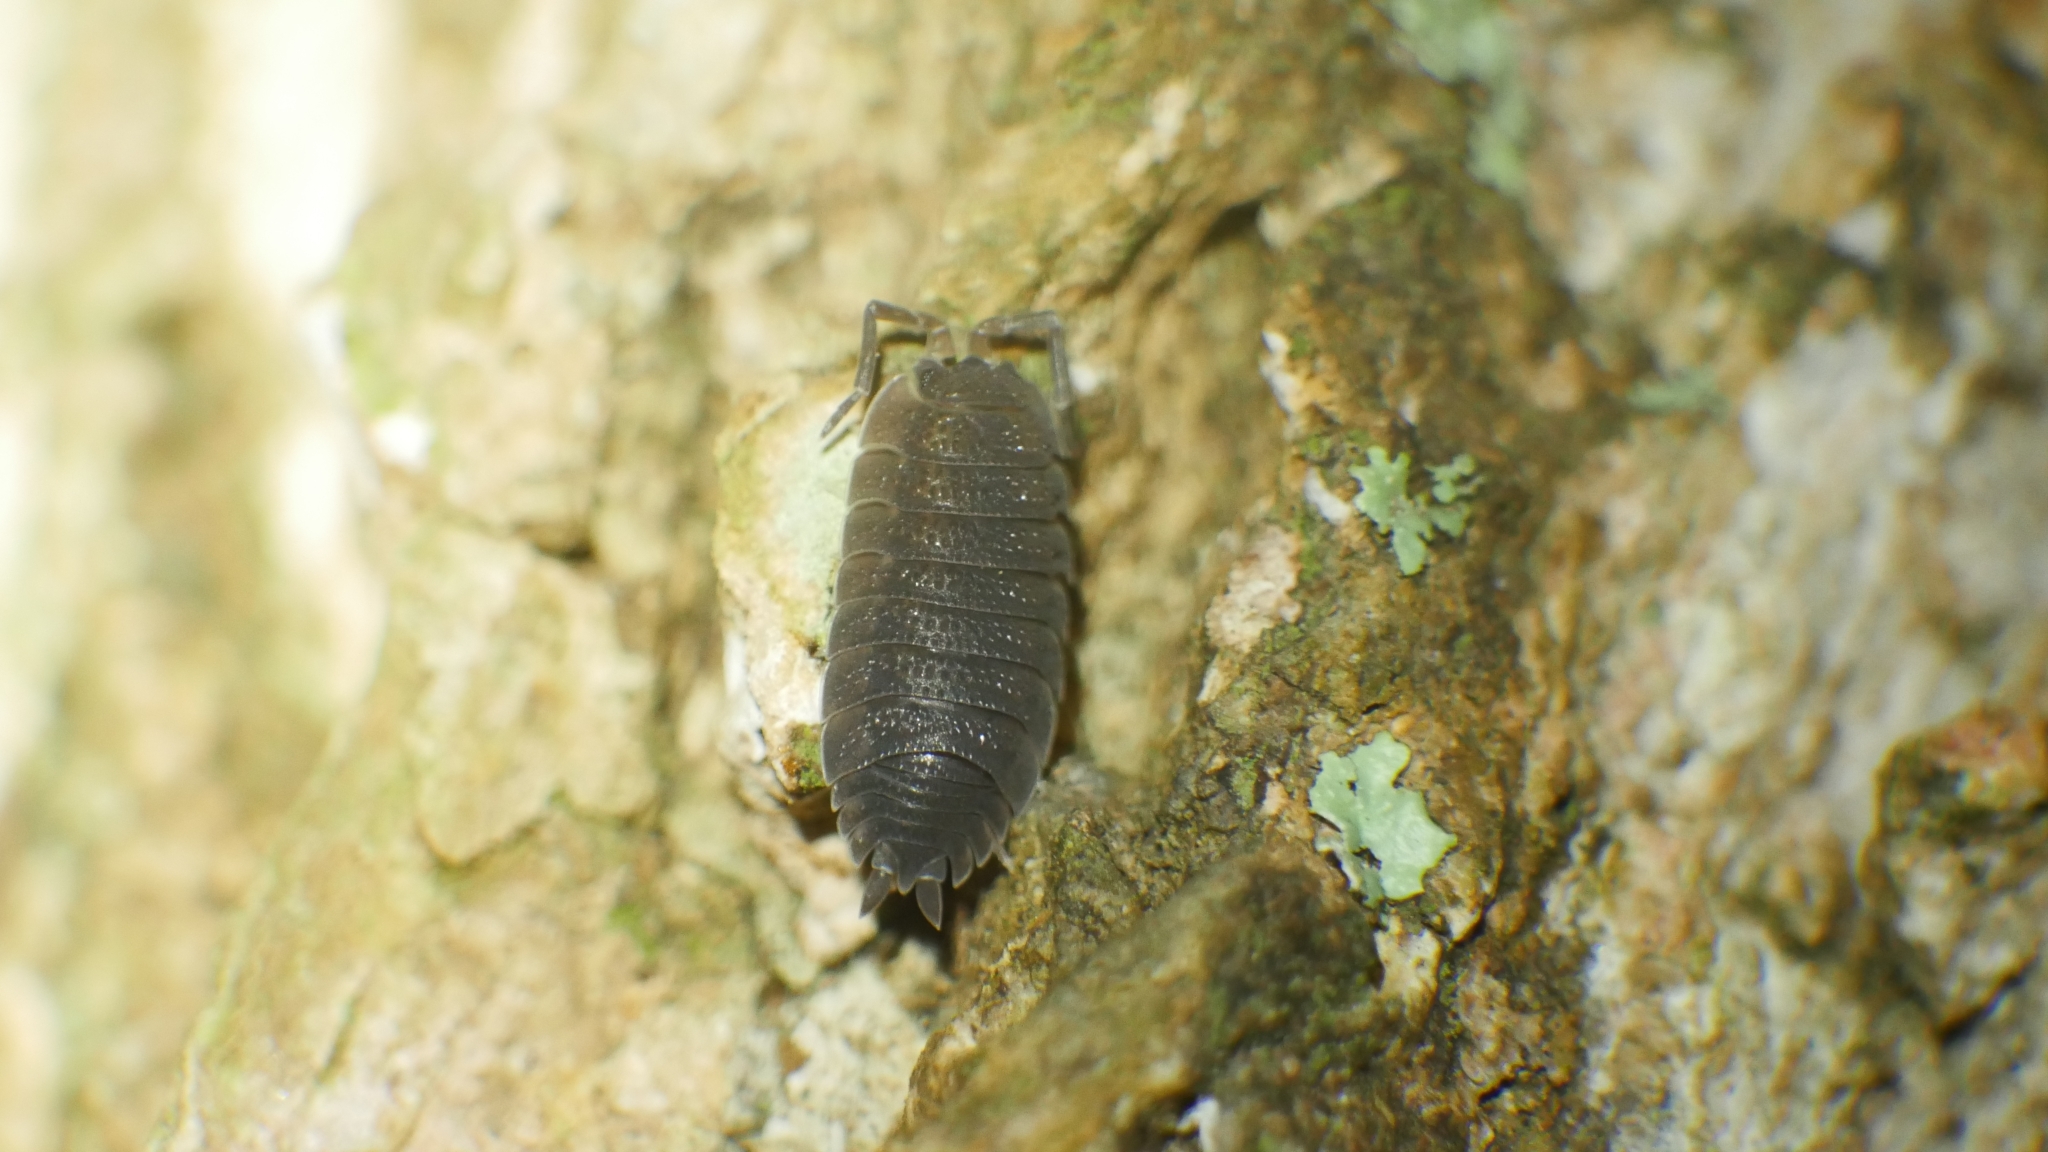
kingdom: Animalia
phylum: Arthropoda
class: Malacostraca
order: Isopoda
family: Porcellionidae
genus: Porcellio
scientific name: Porcellio scaber
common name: Common rough woodlouse
